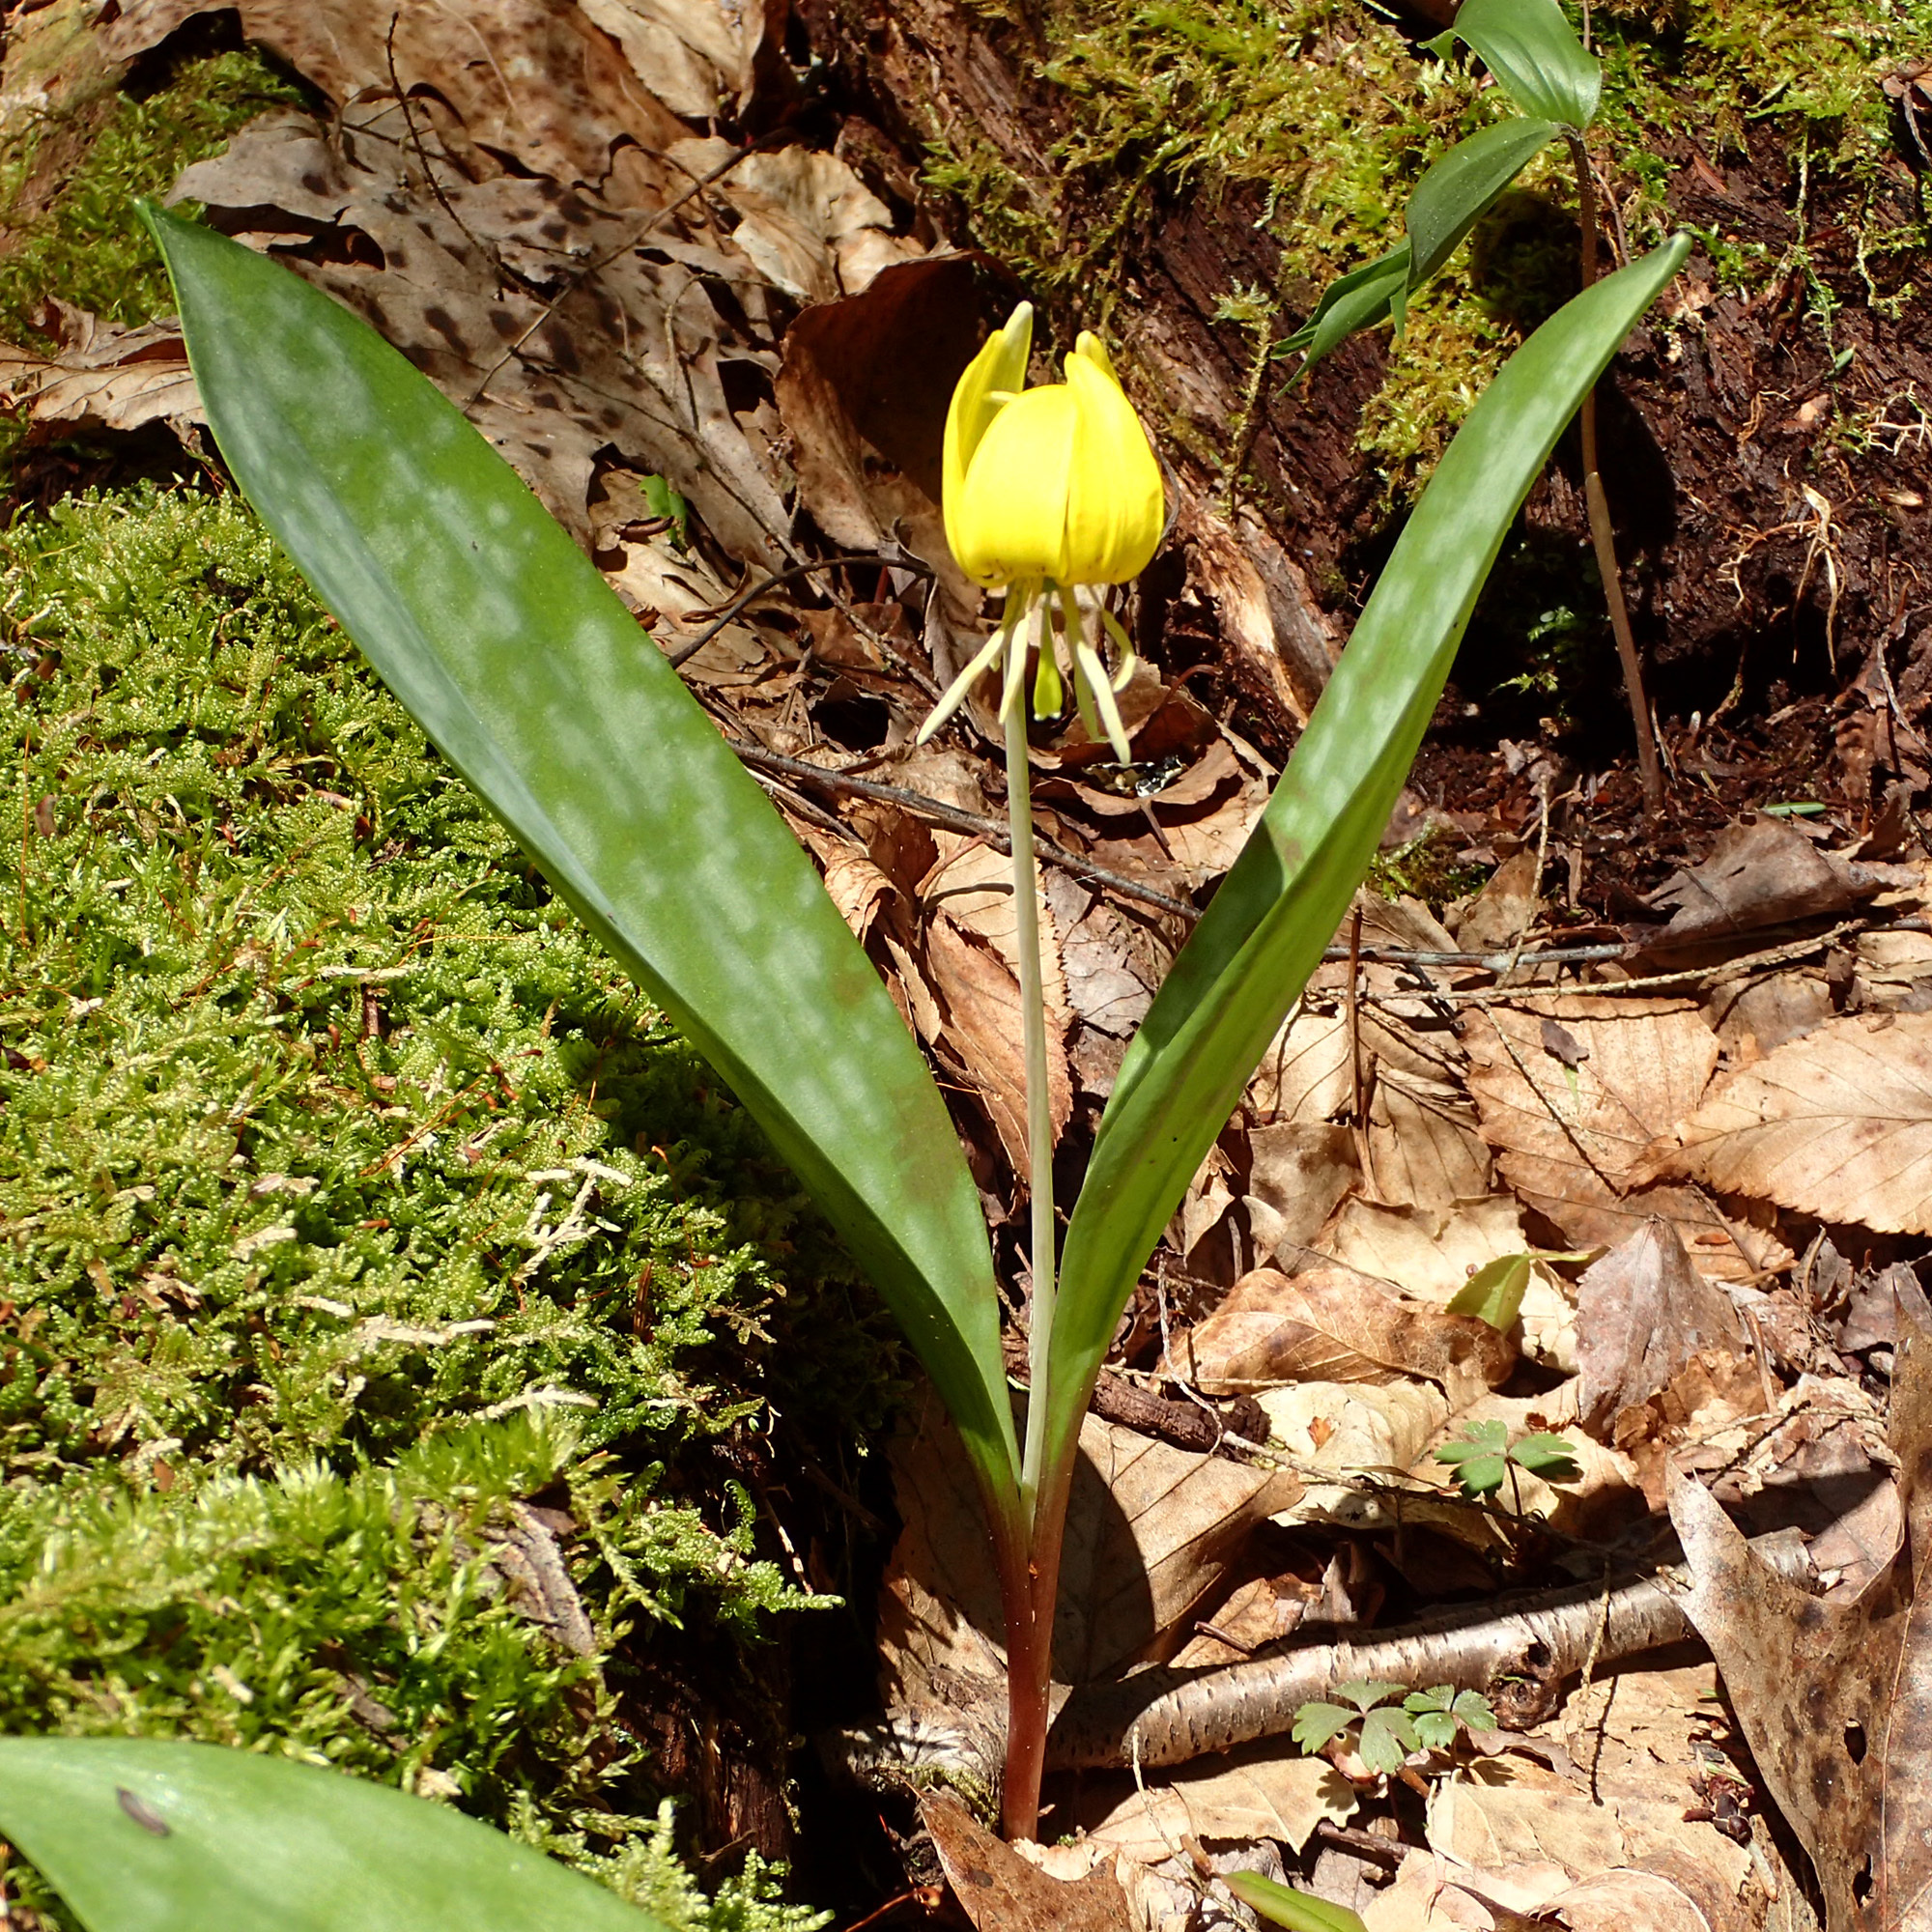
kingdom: Plantae
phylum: Tracheophyta
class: Liliopsida
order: Liliales
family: Liliaceae
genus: Erythronium
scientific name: Erythronium americanum
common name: Yellow adder's-tongue
